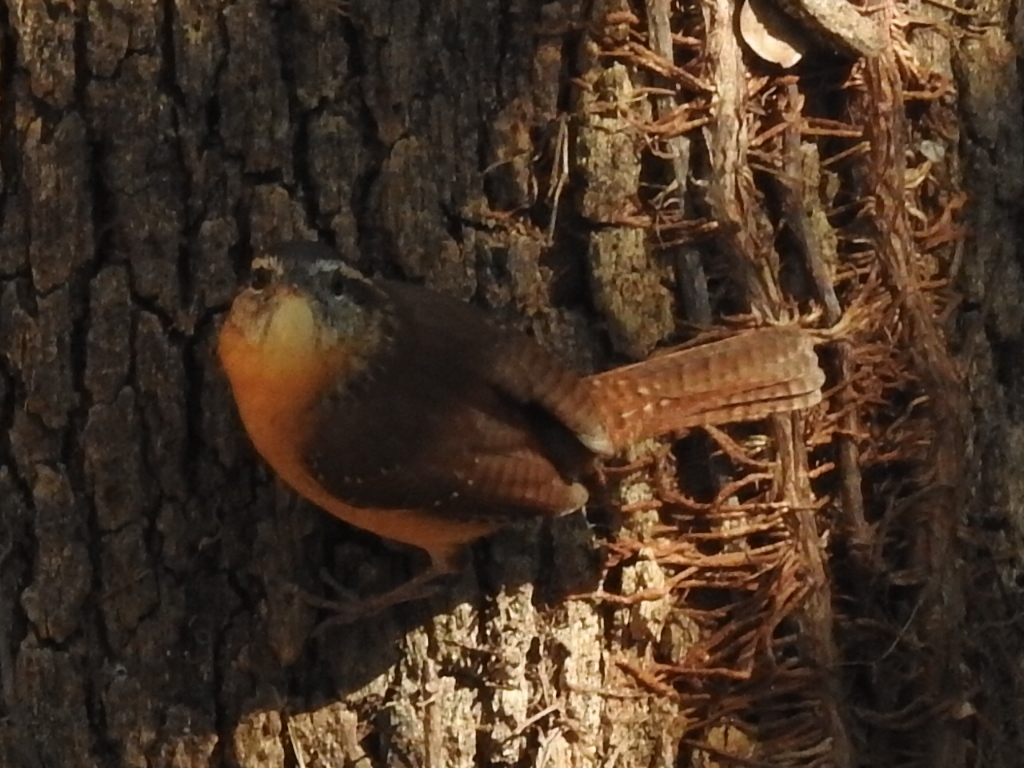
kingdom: Animalia
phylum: Chordata
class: Aves
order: Passeriformes
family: Troglodytidae
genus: Thryothorus
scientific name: Thryothorus ludovicianus
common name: Carolina wren
